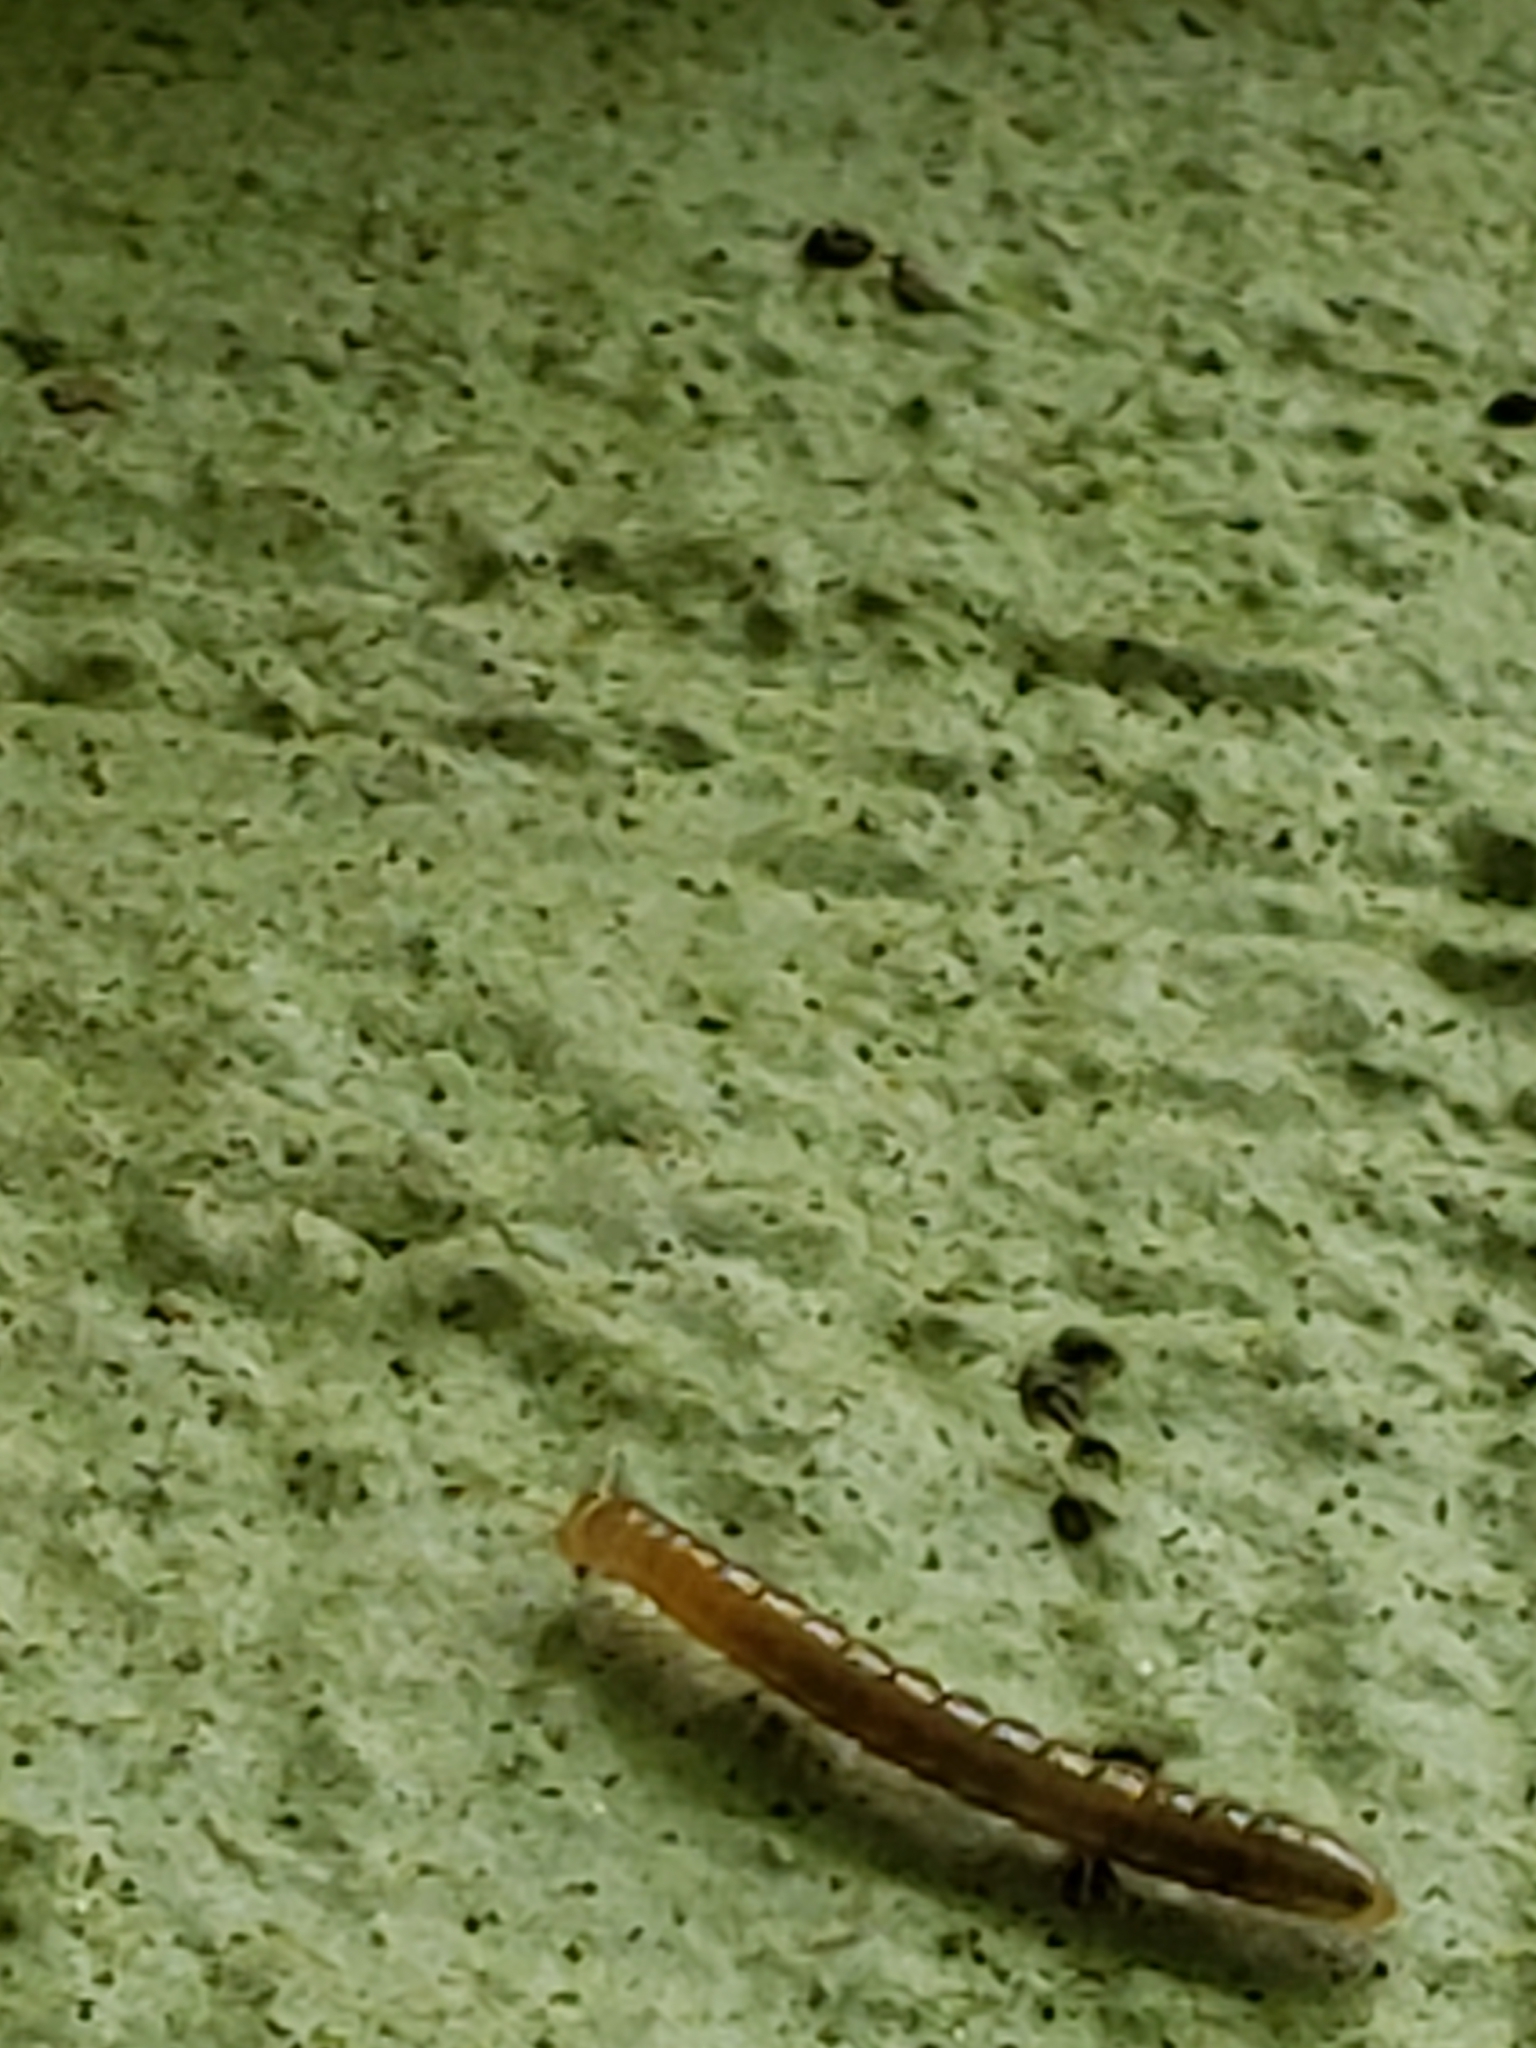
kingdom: Animalia
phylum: Arthropoda
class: Diplopoda
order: Polydesmida
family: Paradoxosomatidae
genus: Oxidus
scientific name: Oxidus gracilis
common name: Greenhouse millipede
